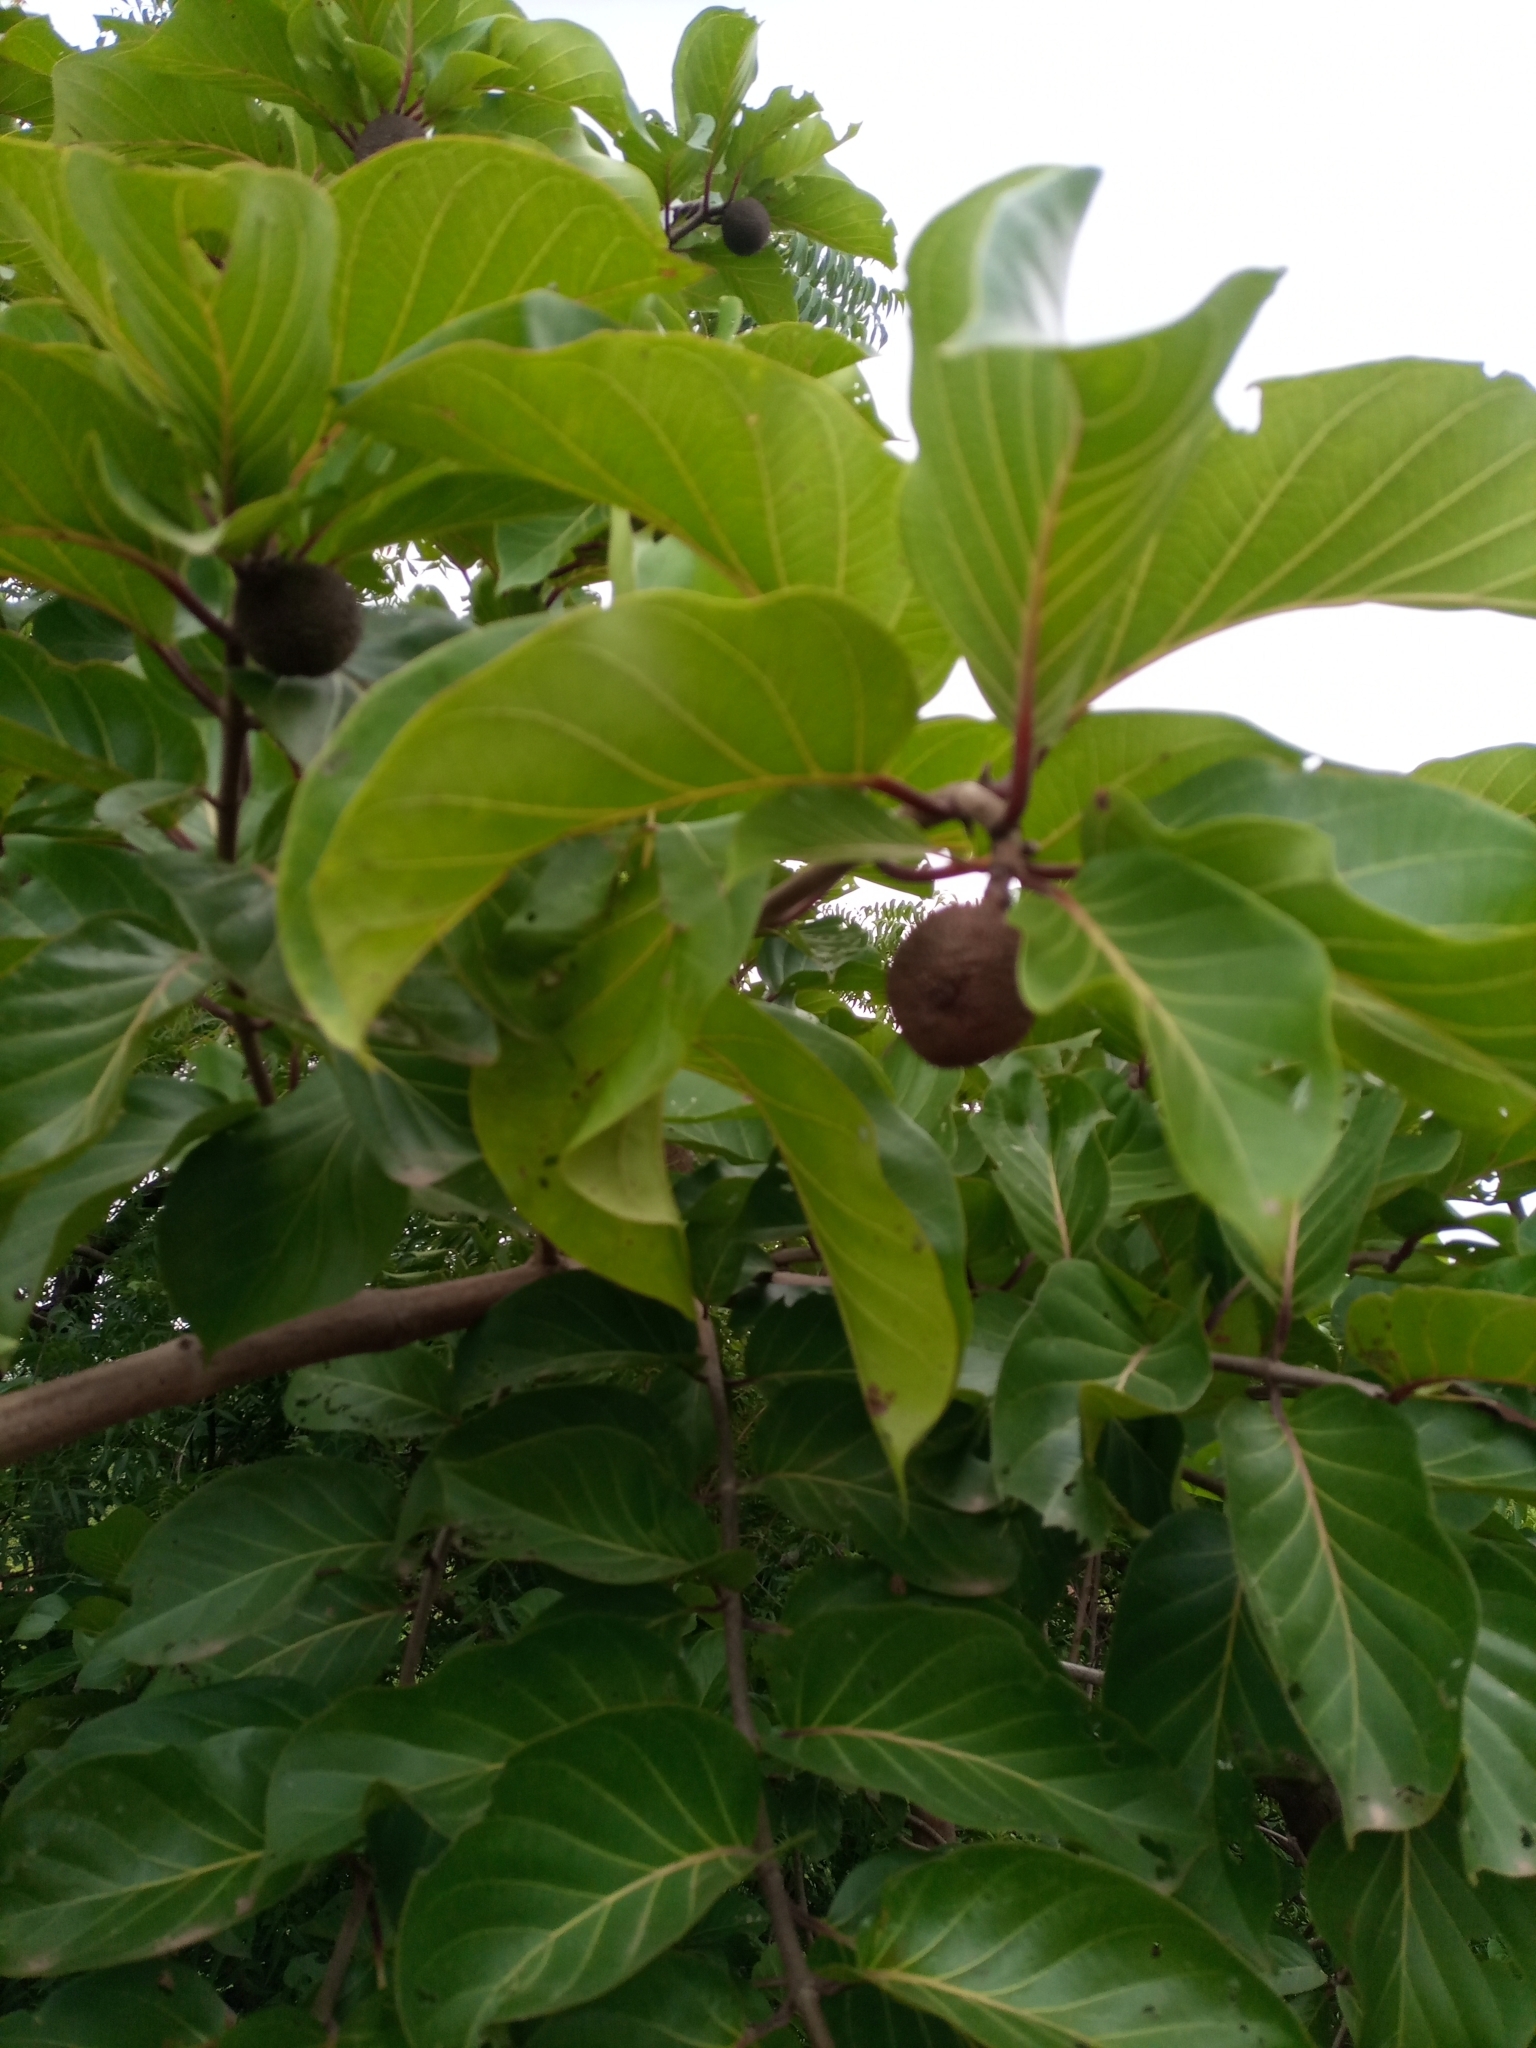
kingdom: Plantae
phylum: Tracheophyta
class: Magnoliopsida
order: Gentianales
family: Rubiaceae
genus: Nauclea
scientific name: Nauclea latifolia
